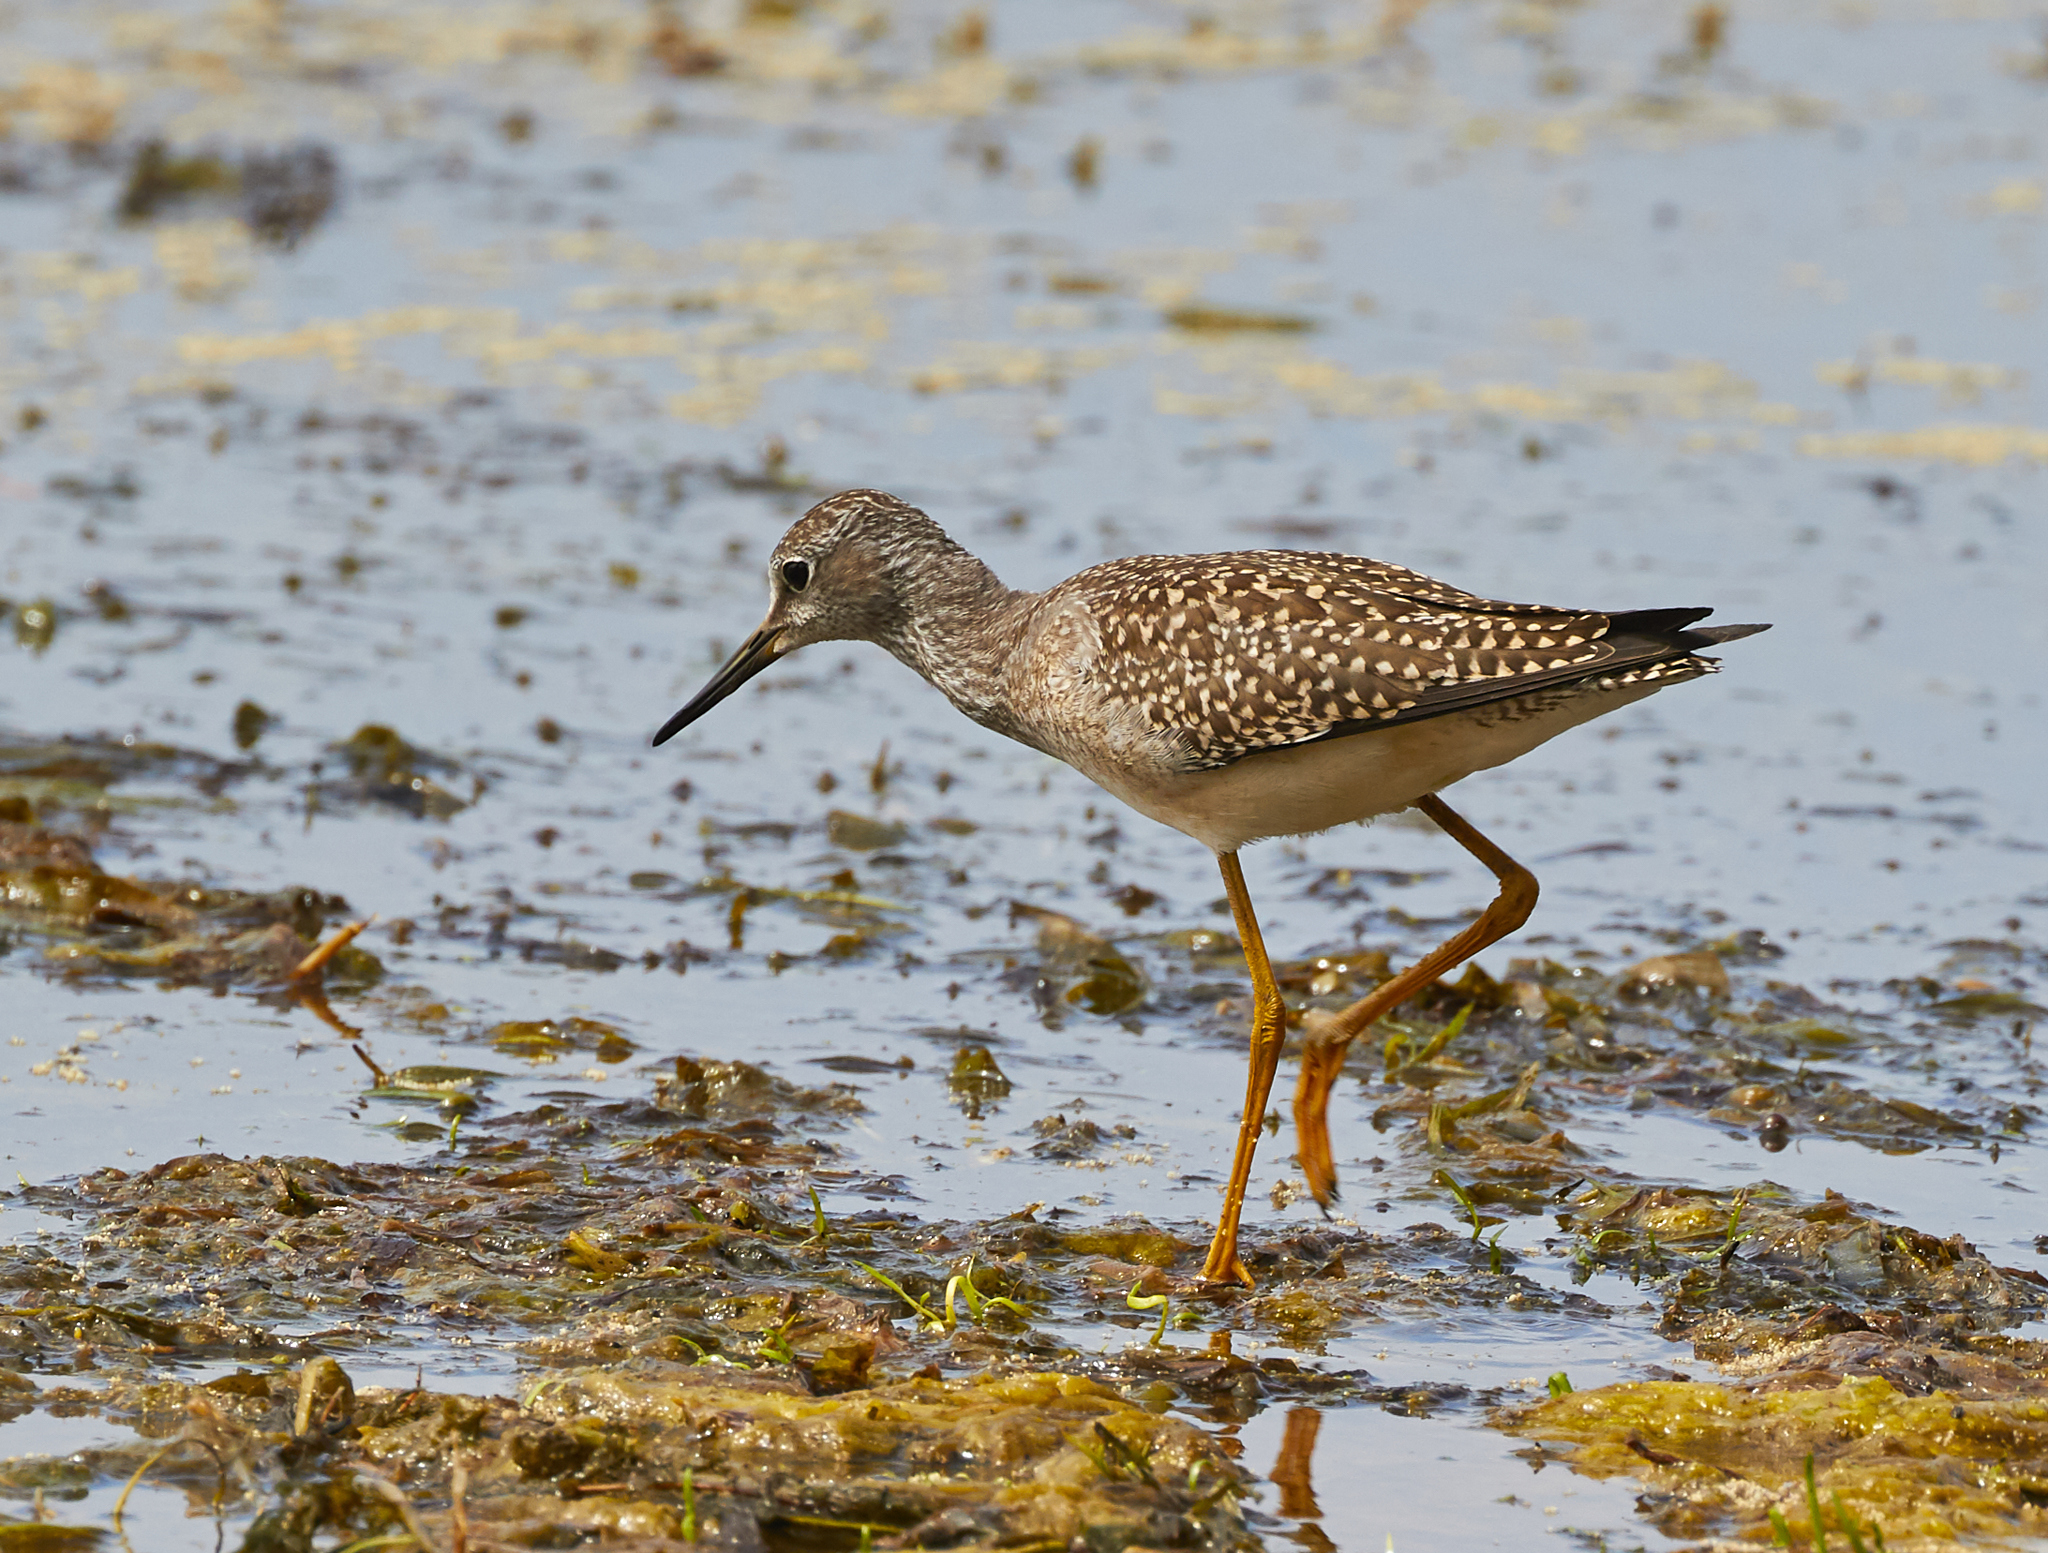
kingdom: Animalia
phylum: Chordata
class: Aves
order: Charadriiformes
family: Scolopacidae
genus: Tringa
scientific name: Tringa flavipes
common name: Lesser yellowlegs
